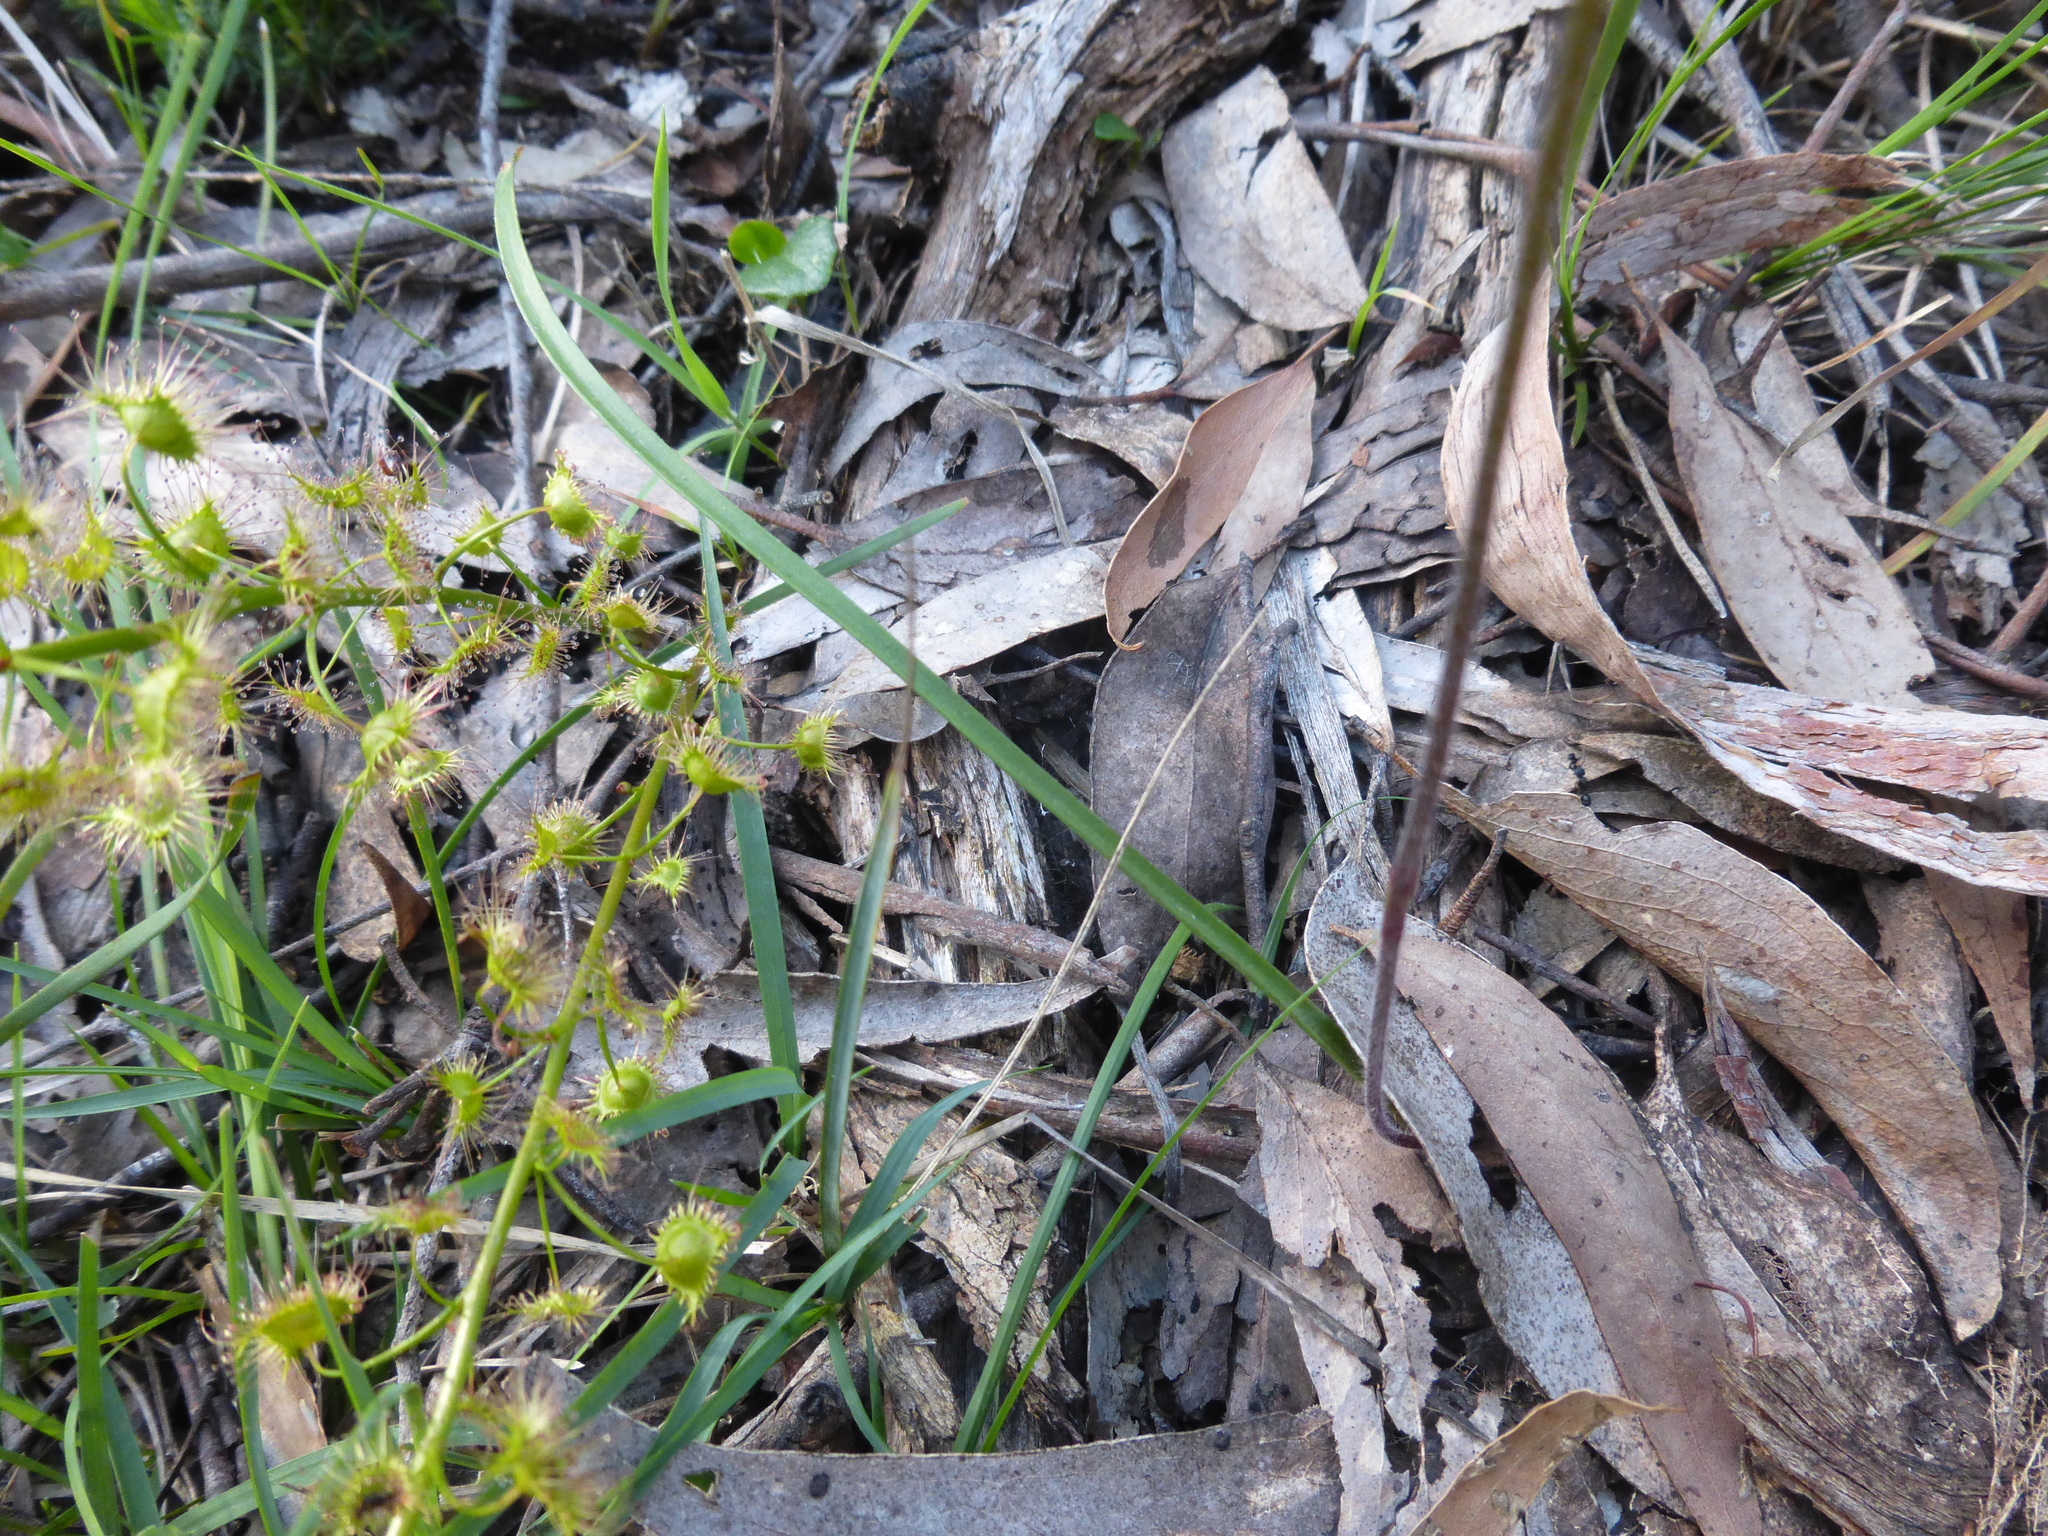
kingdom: Plantae
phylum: Tracheophyta
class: Liliopsida
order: Asparagales
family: Orchidaceae
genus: Caladenia
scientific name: Caladenia transitoria
